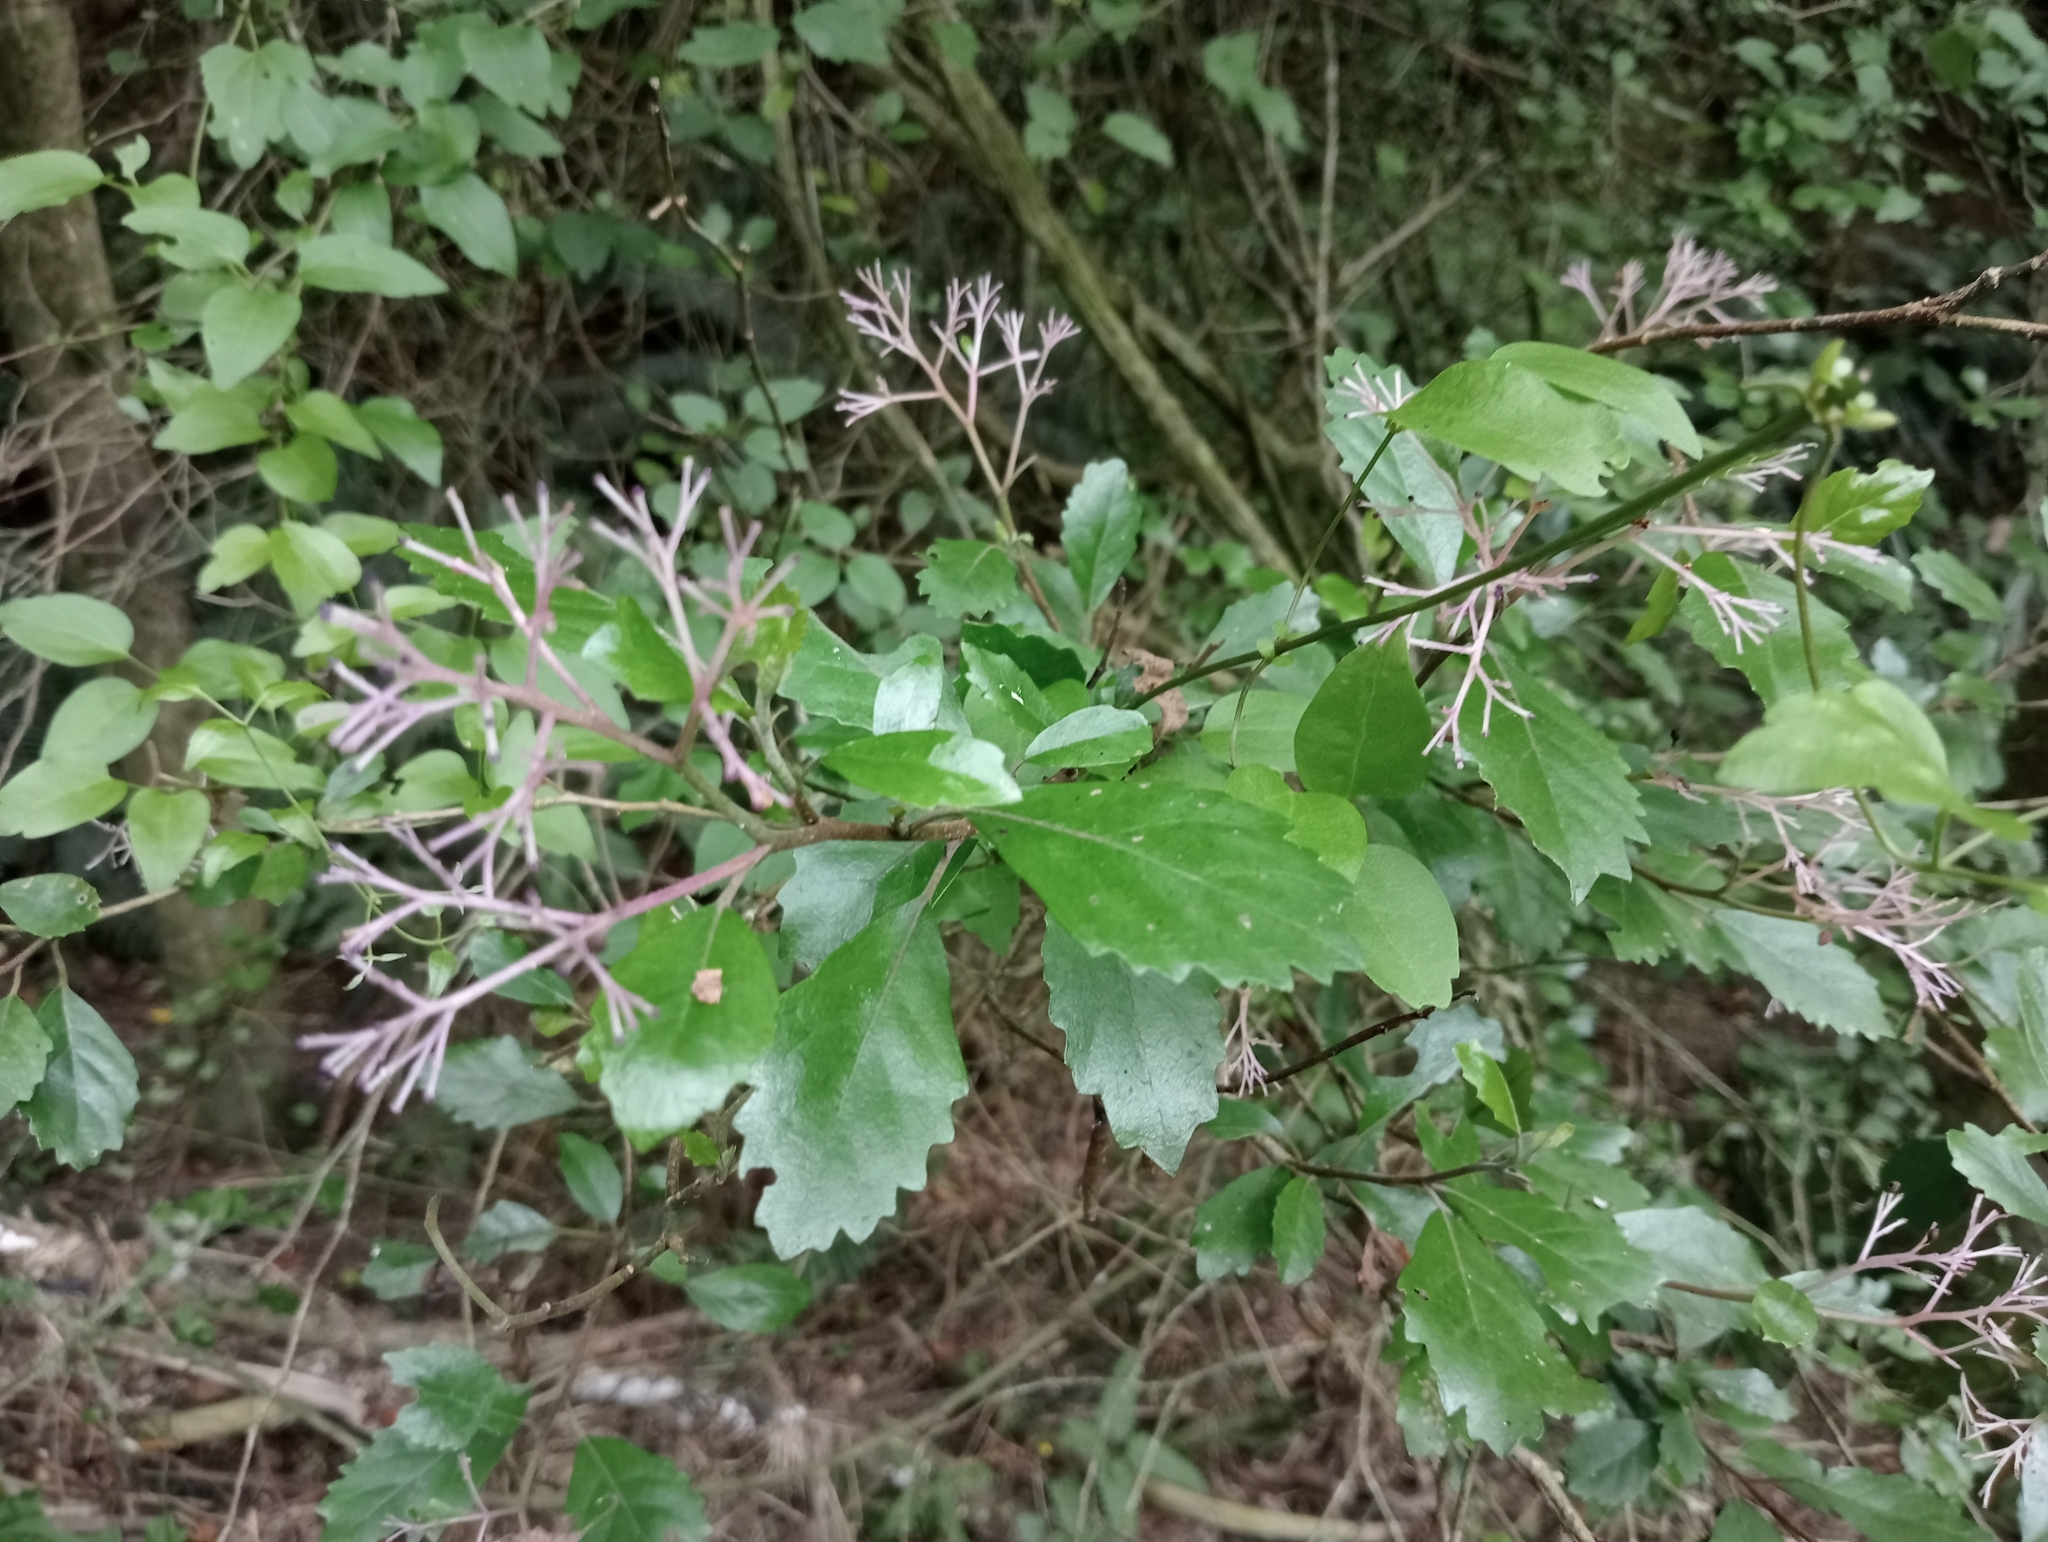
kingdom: Plantae
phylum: Tracheophyta
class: Magnoliopsida
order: Apiales
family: Pennantiaceae
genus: Pennantia
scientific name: Pennantia corymbosa
